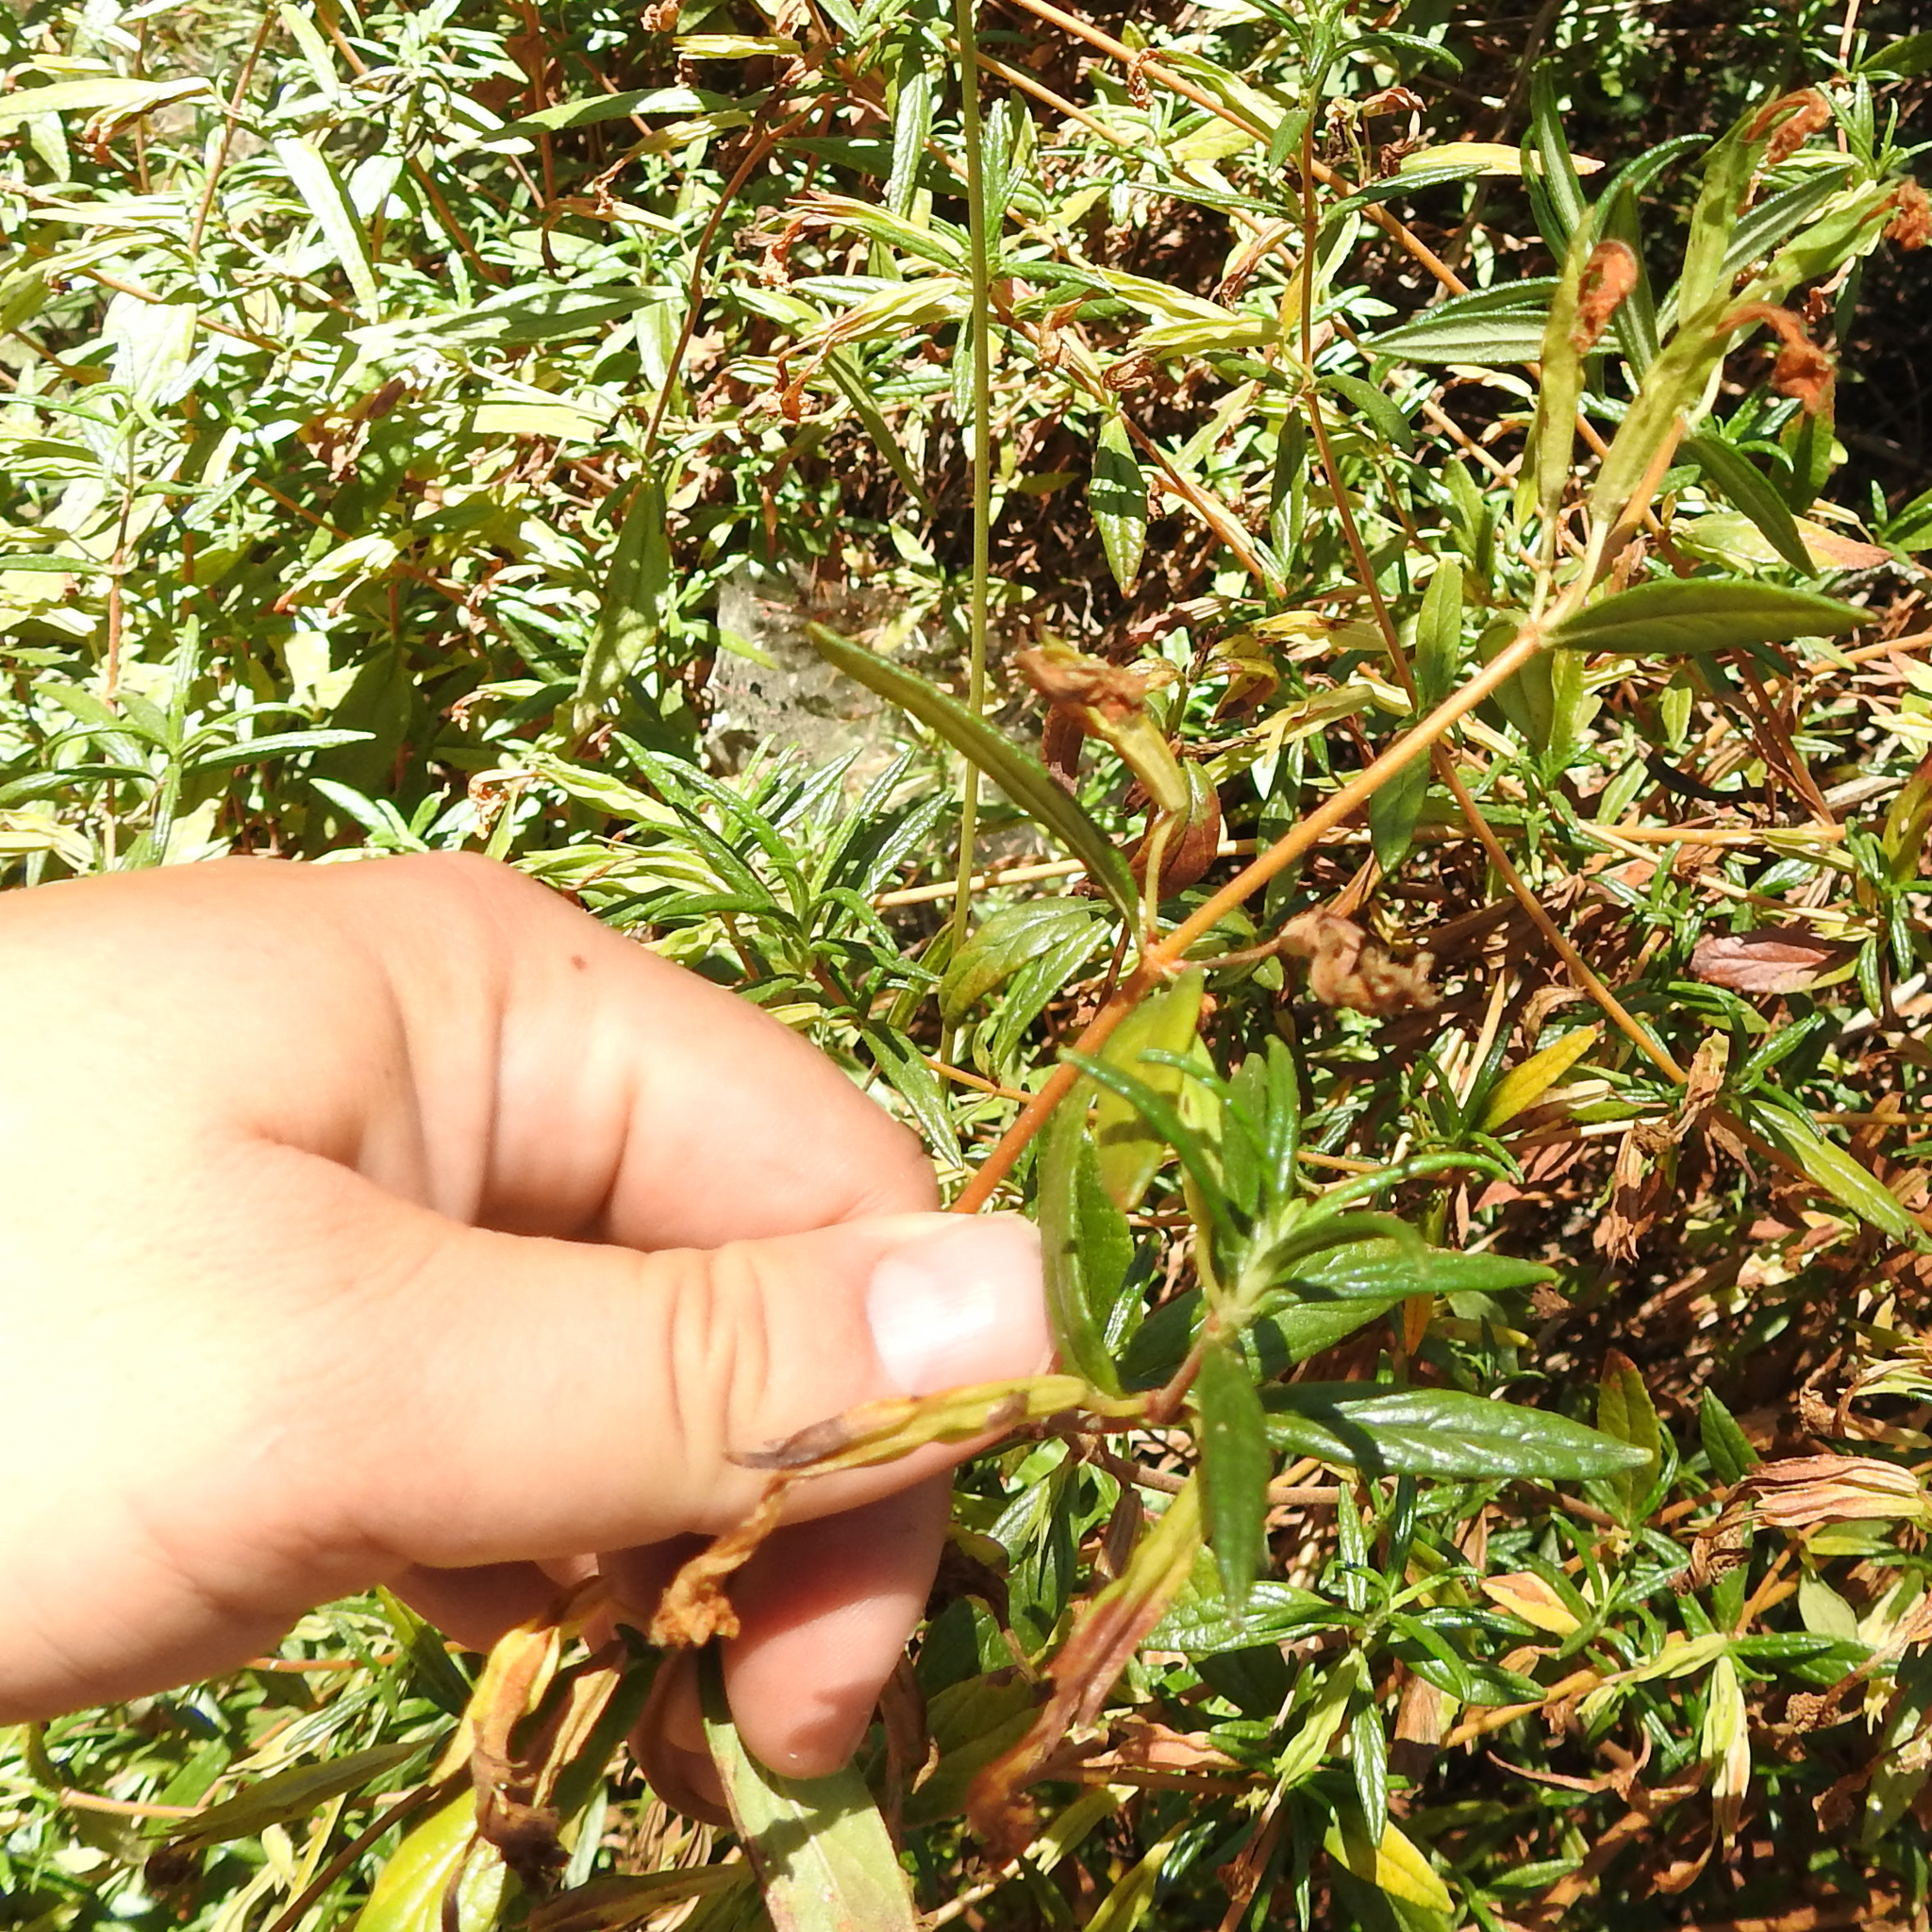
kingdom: Plantae
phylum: Tracheophyta
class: Magnoliopsida
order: Lamiales
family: Phrymaceae
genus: Diplacus
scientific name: Diplacus aurantiacus
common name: Bush monkey-flower
